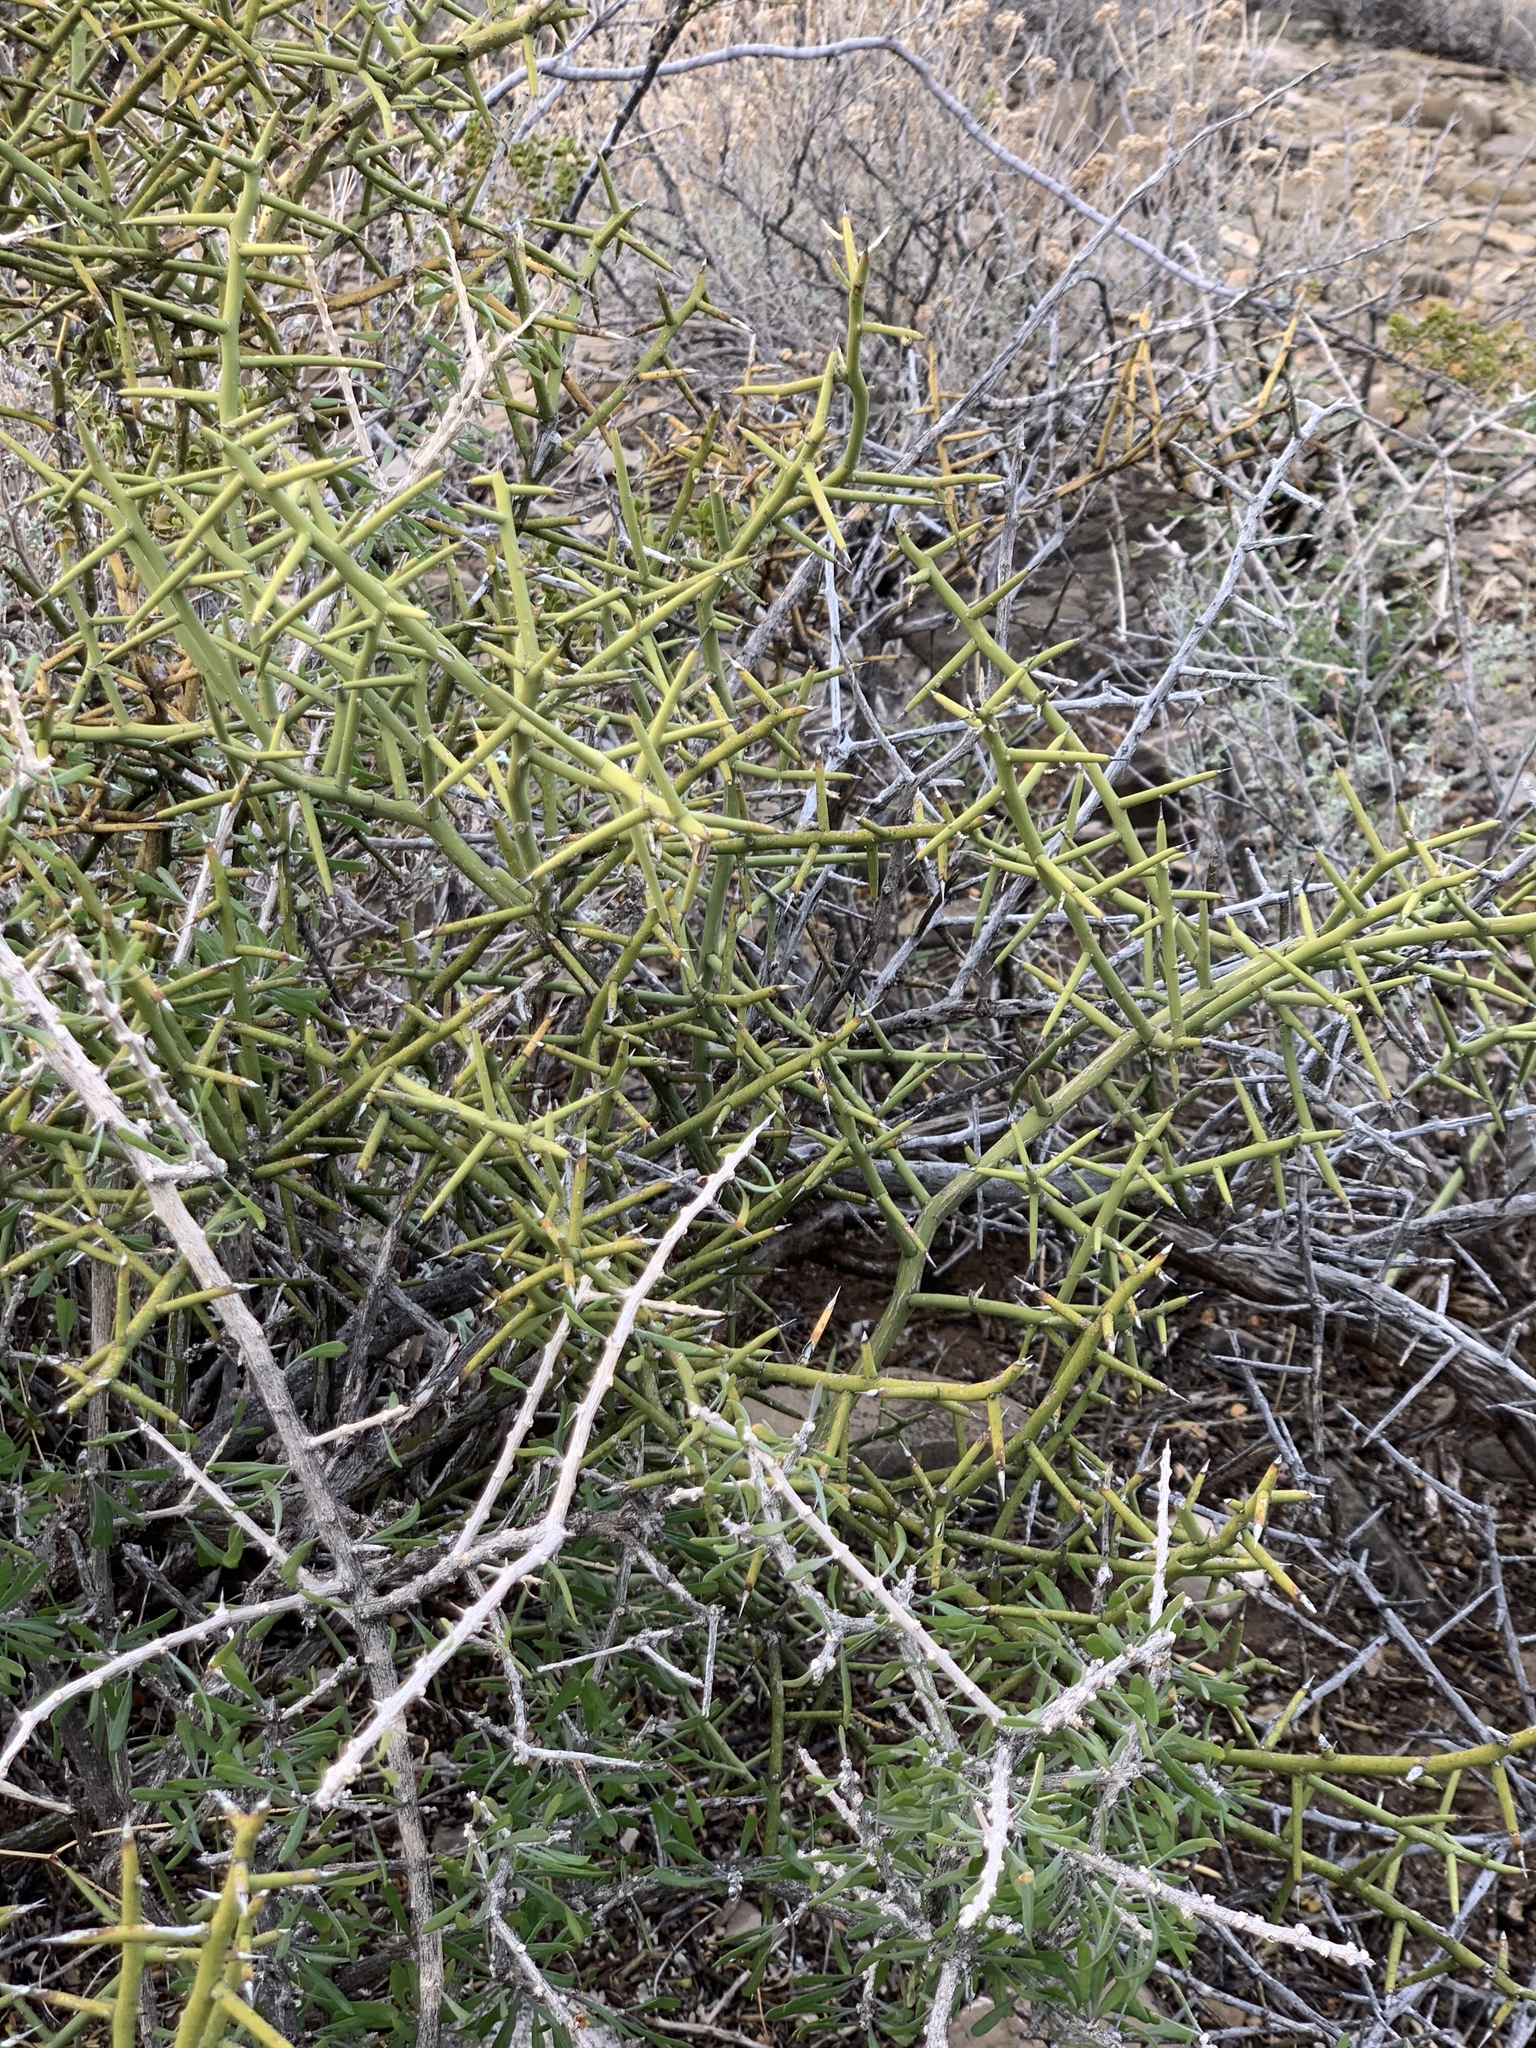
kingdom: Plantae
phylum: Tracheophyta
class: Magnoliopsida
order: Brassicales
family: Koeberliniaceae
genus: Koeberlinia
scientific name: Koeberlinia spinosa
